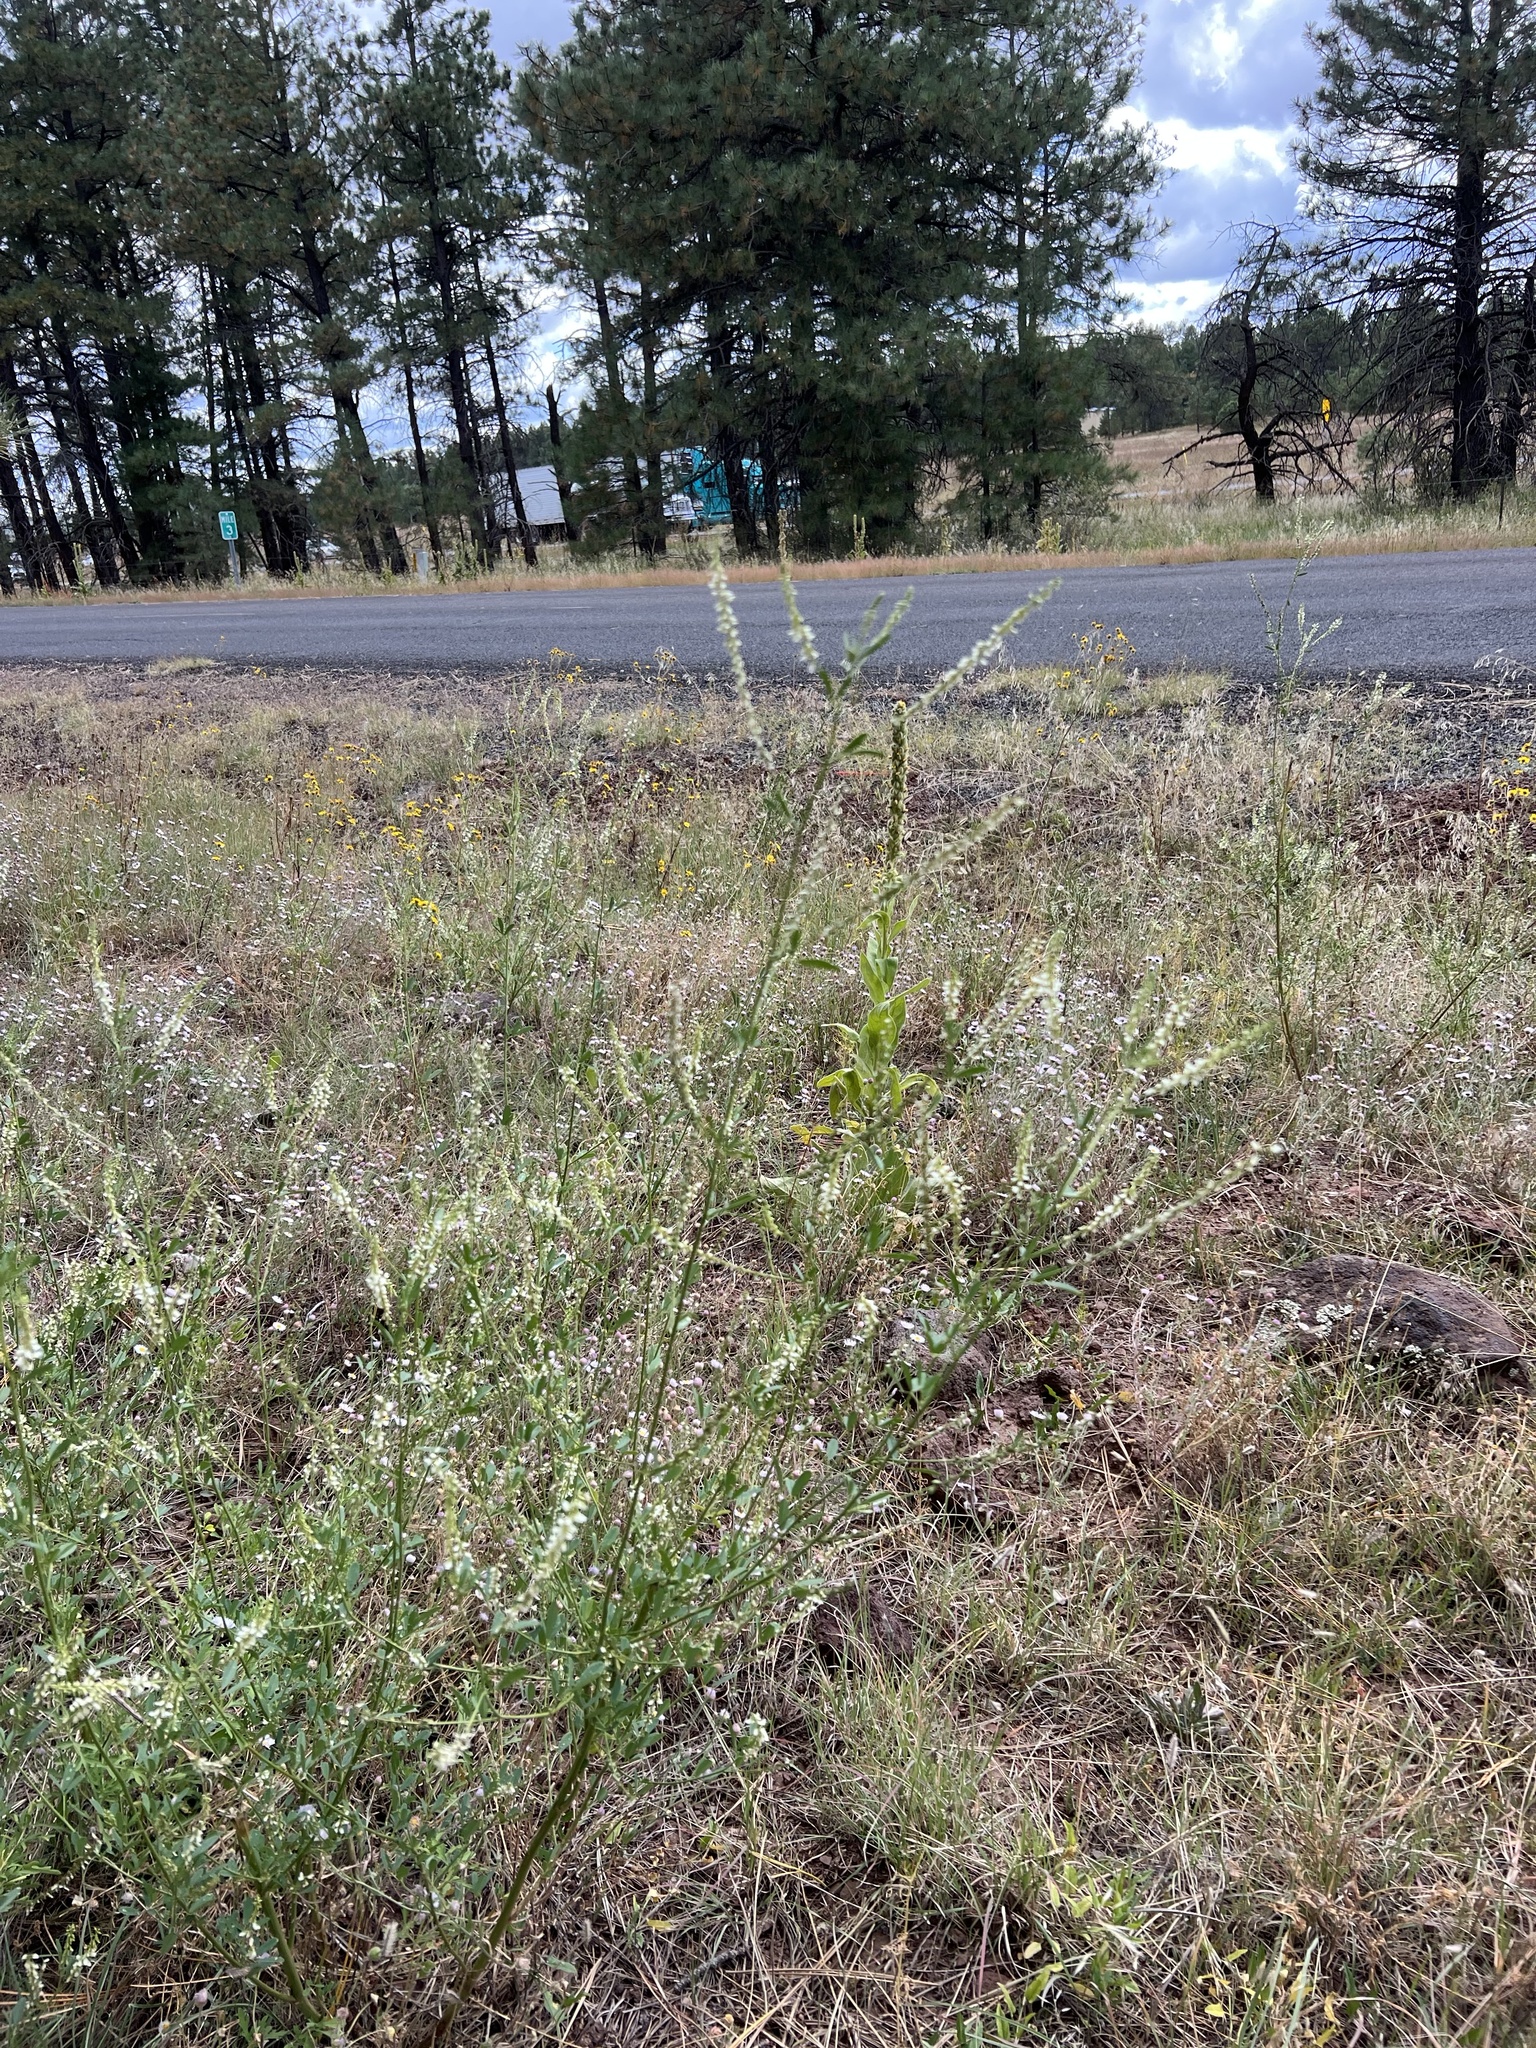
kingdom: Plantae
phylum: Tracheophyta
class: Magnoliopsida
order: Fabales
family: Fabaceae
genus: Melilotus
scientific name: Melilotus albus
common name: White melilot
